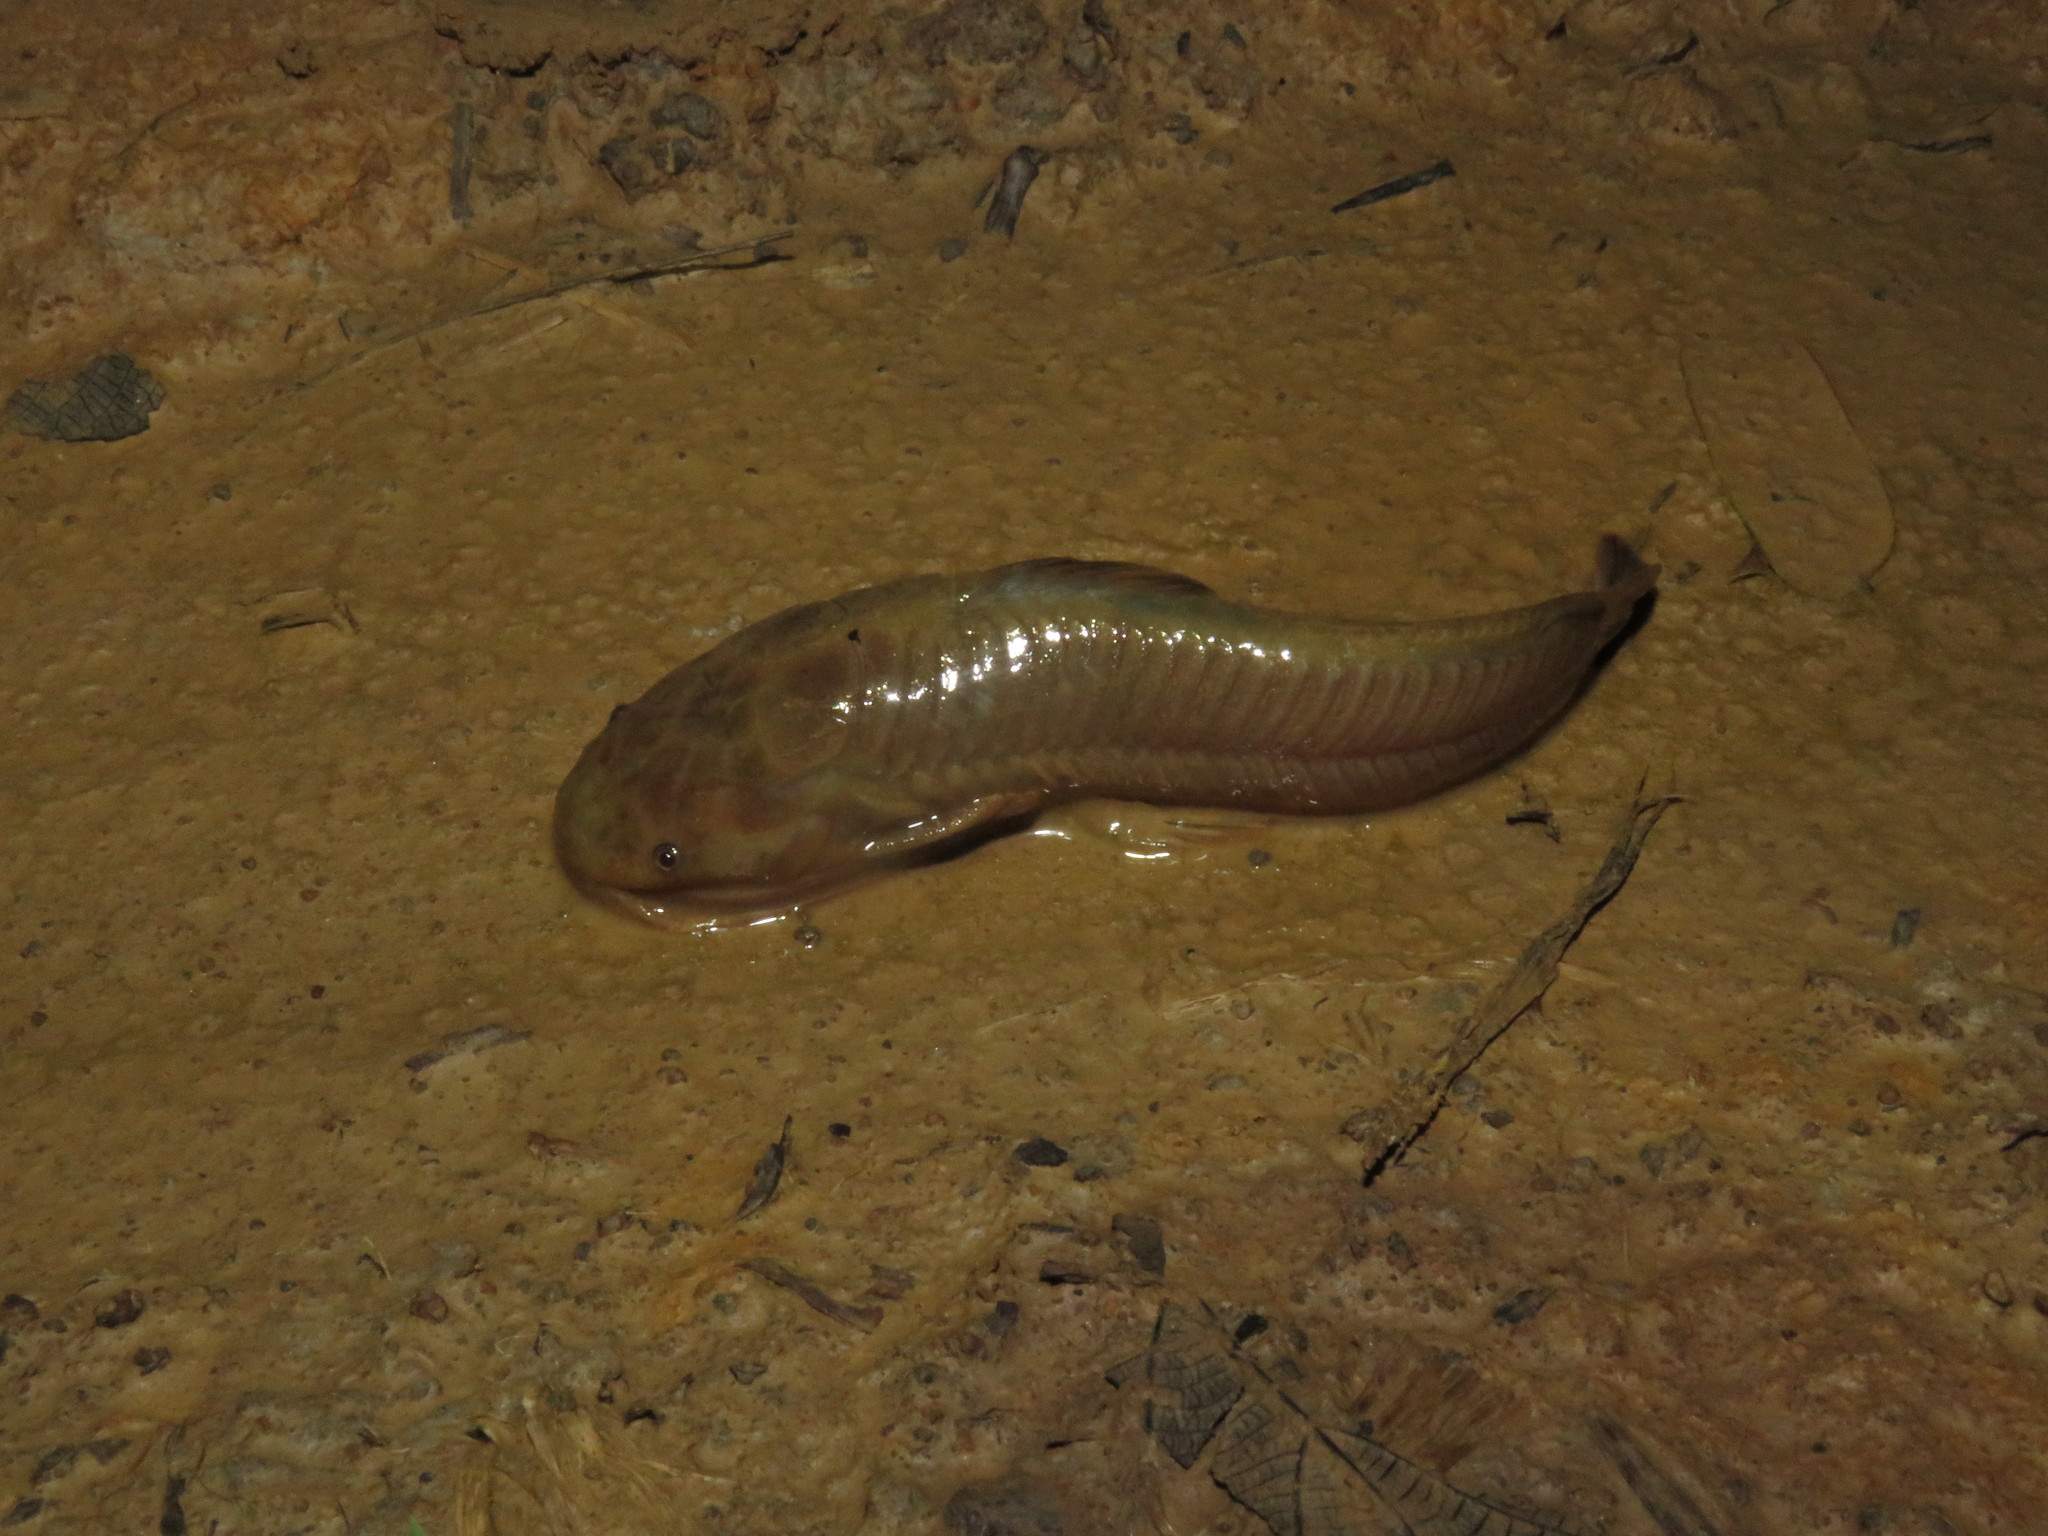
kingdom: Animalia
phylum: Chordata
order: Siluriformes
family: Callichthyidae
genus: Callichthys
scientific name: Callichthys callichthys
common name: Cascarudo
